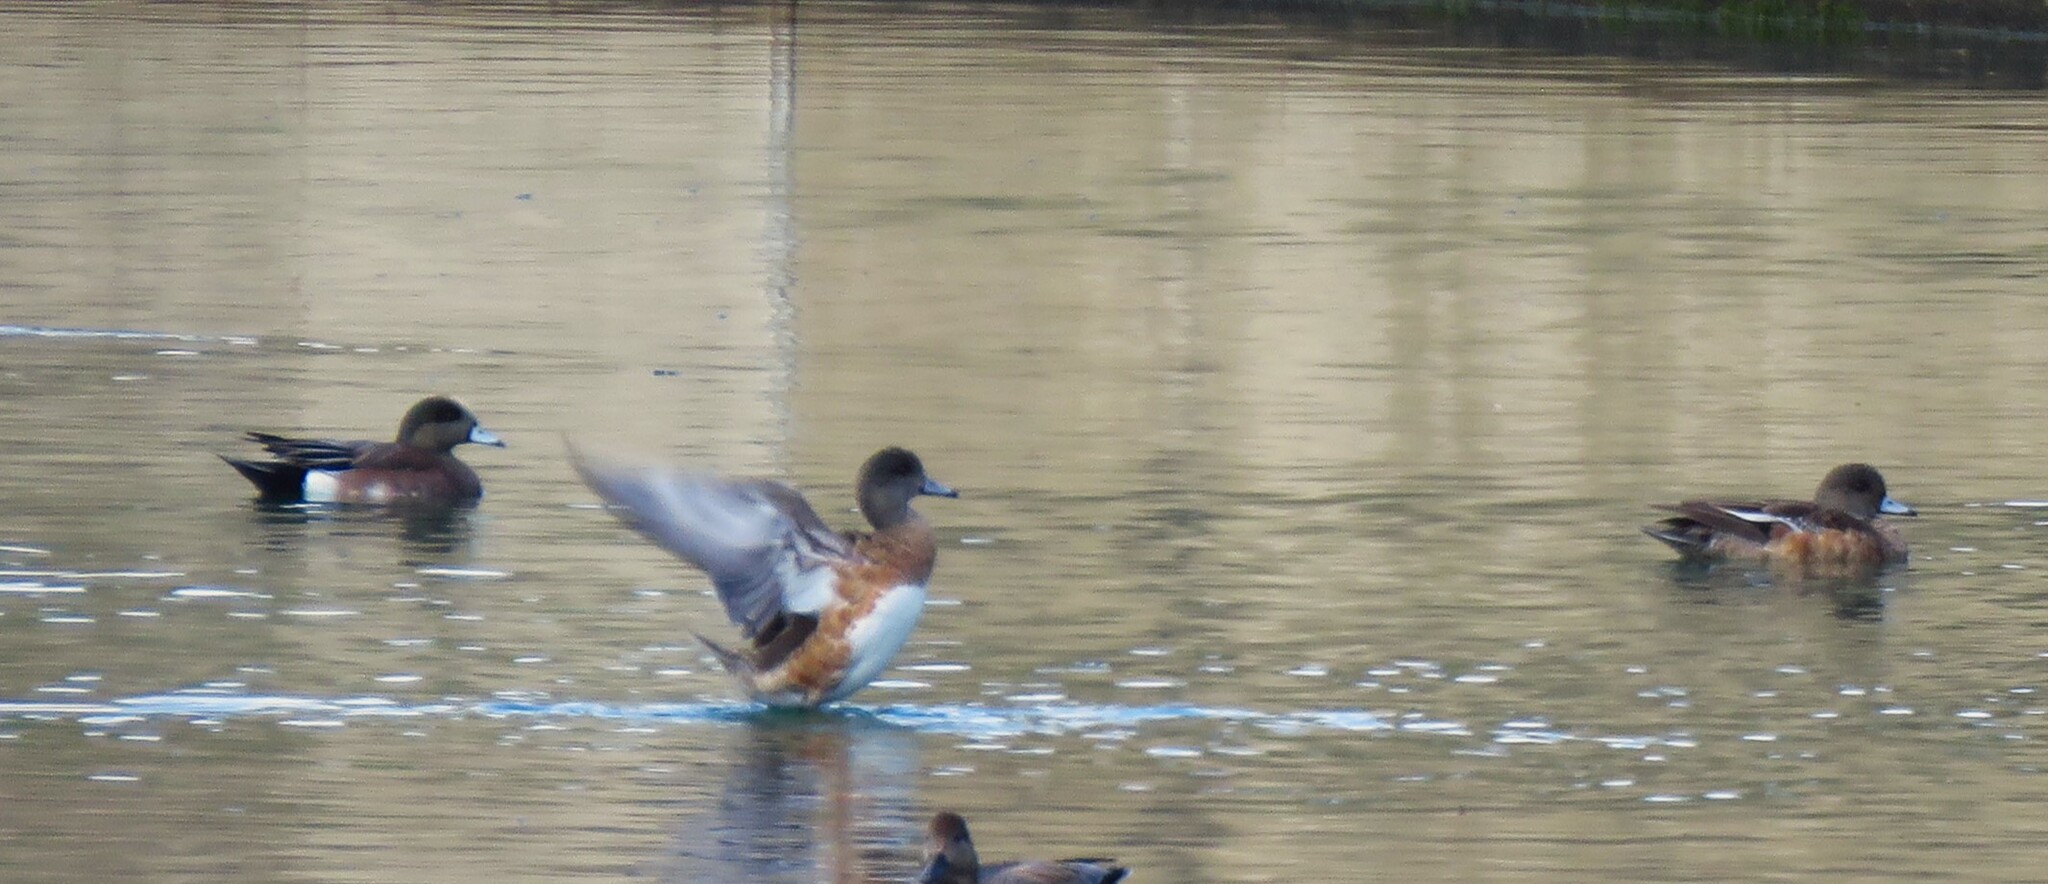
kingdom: Animalia
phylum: Chordata
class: Aves
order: Anseriformes
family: Anatidae
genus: Mareca
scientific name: Mareca americana
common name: American wigeon
